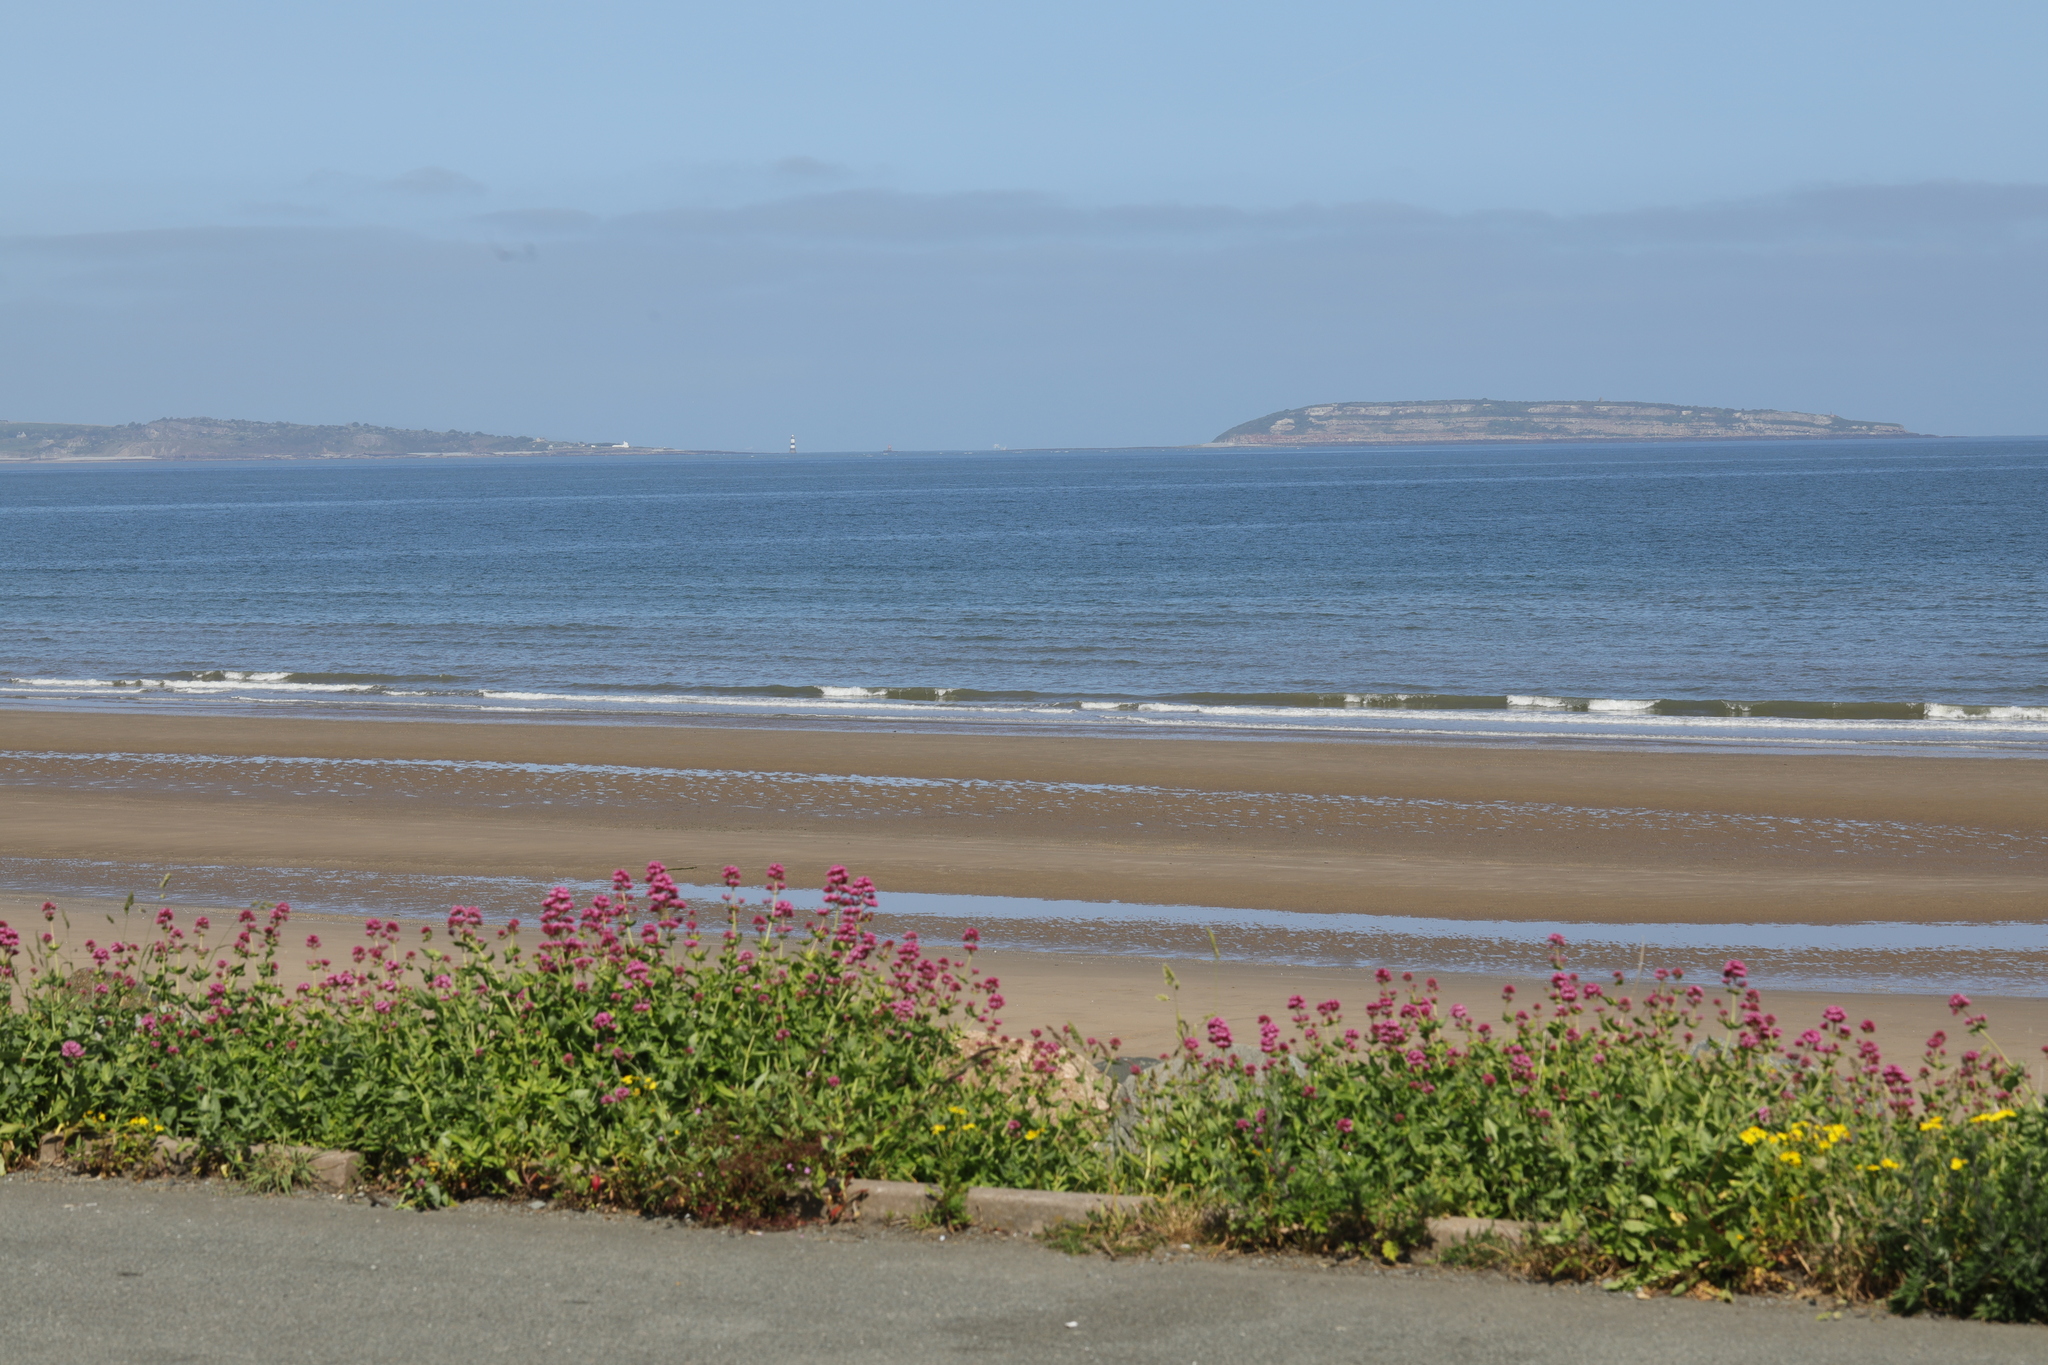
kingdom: Plantae
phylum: Tracheophyta
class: Magnoliopsida
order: Dipsacales
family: Caprifoliaceae
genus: Centranthus
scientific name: Centranthus ruber
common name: Red valerian
